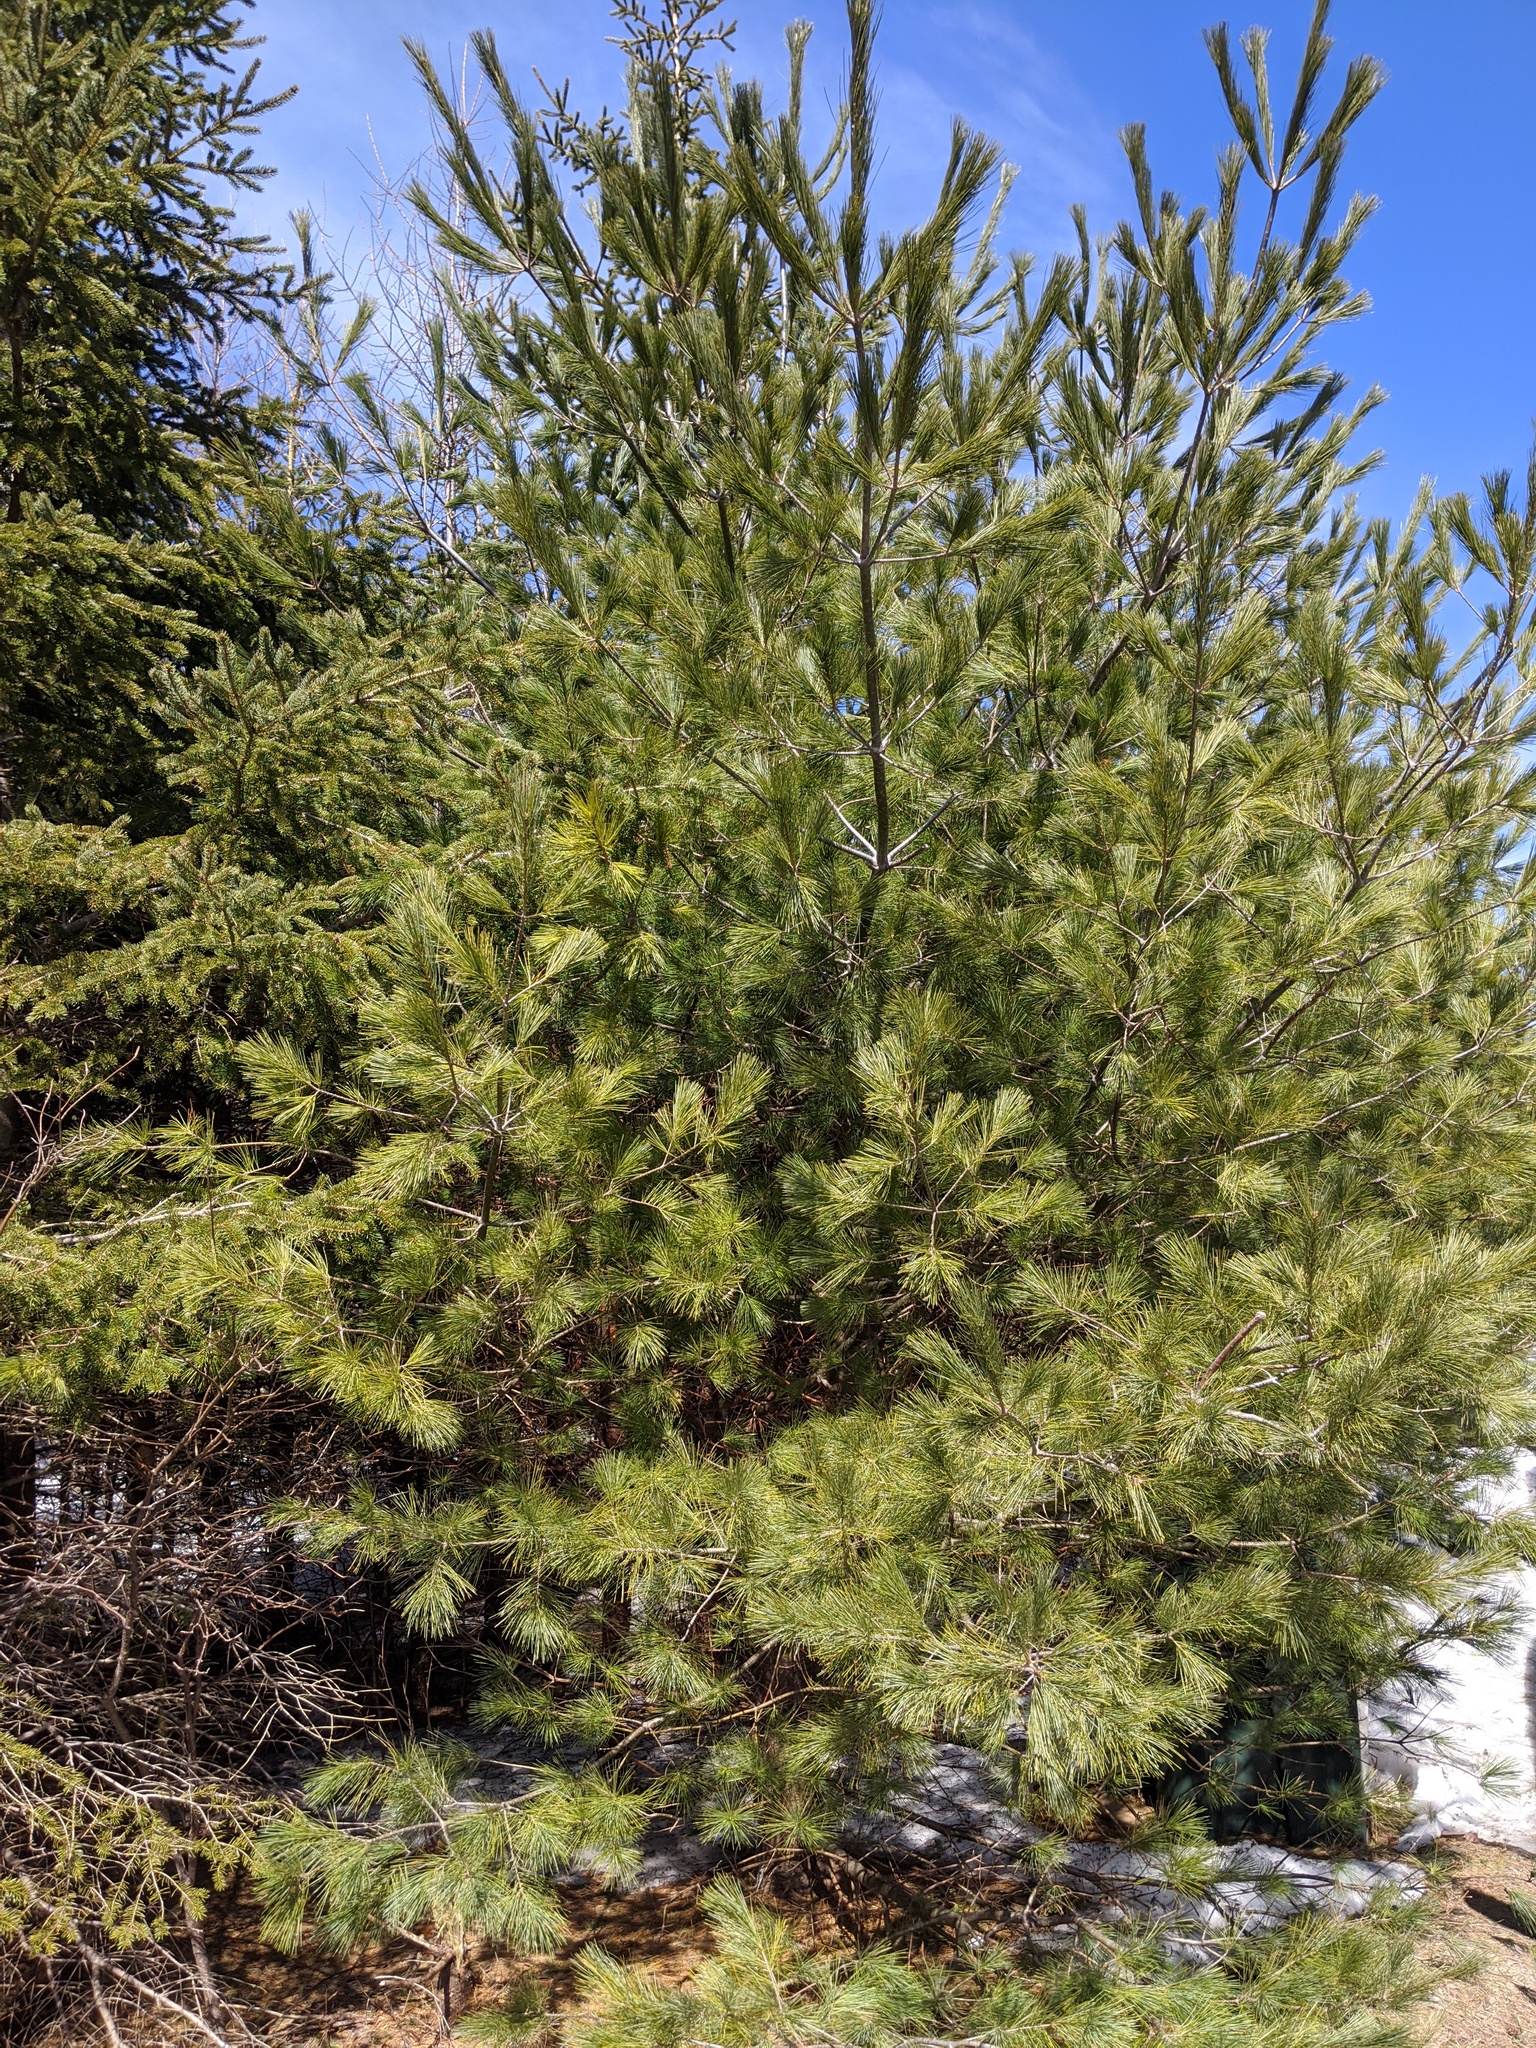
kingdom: Plantae
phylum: Tracheophyta
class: Pinopsida
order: Pinales
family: Pinaceae
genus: Pinus
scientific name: Pinus strobus
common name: Weymouth pine
